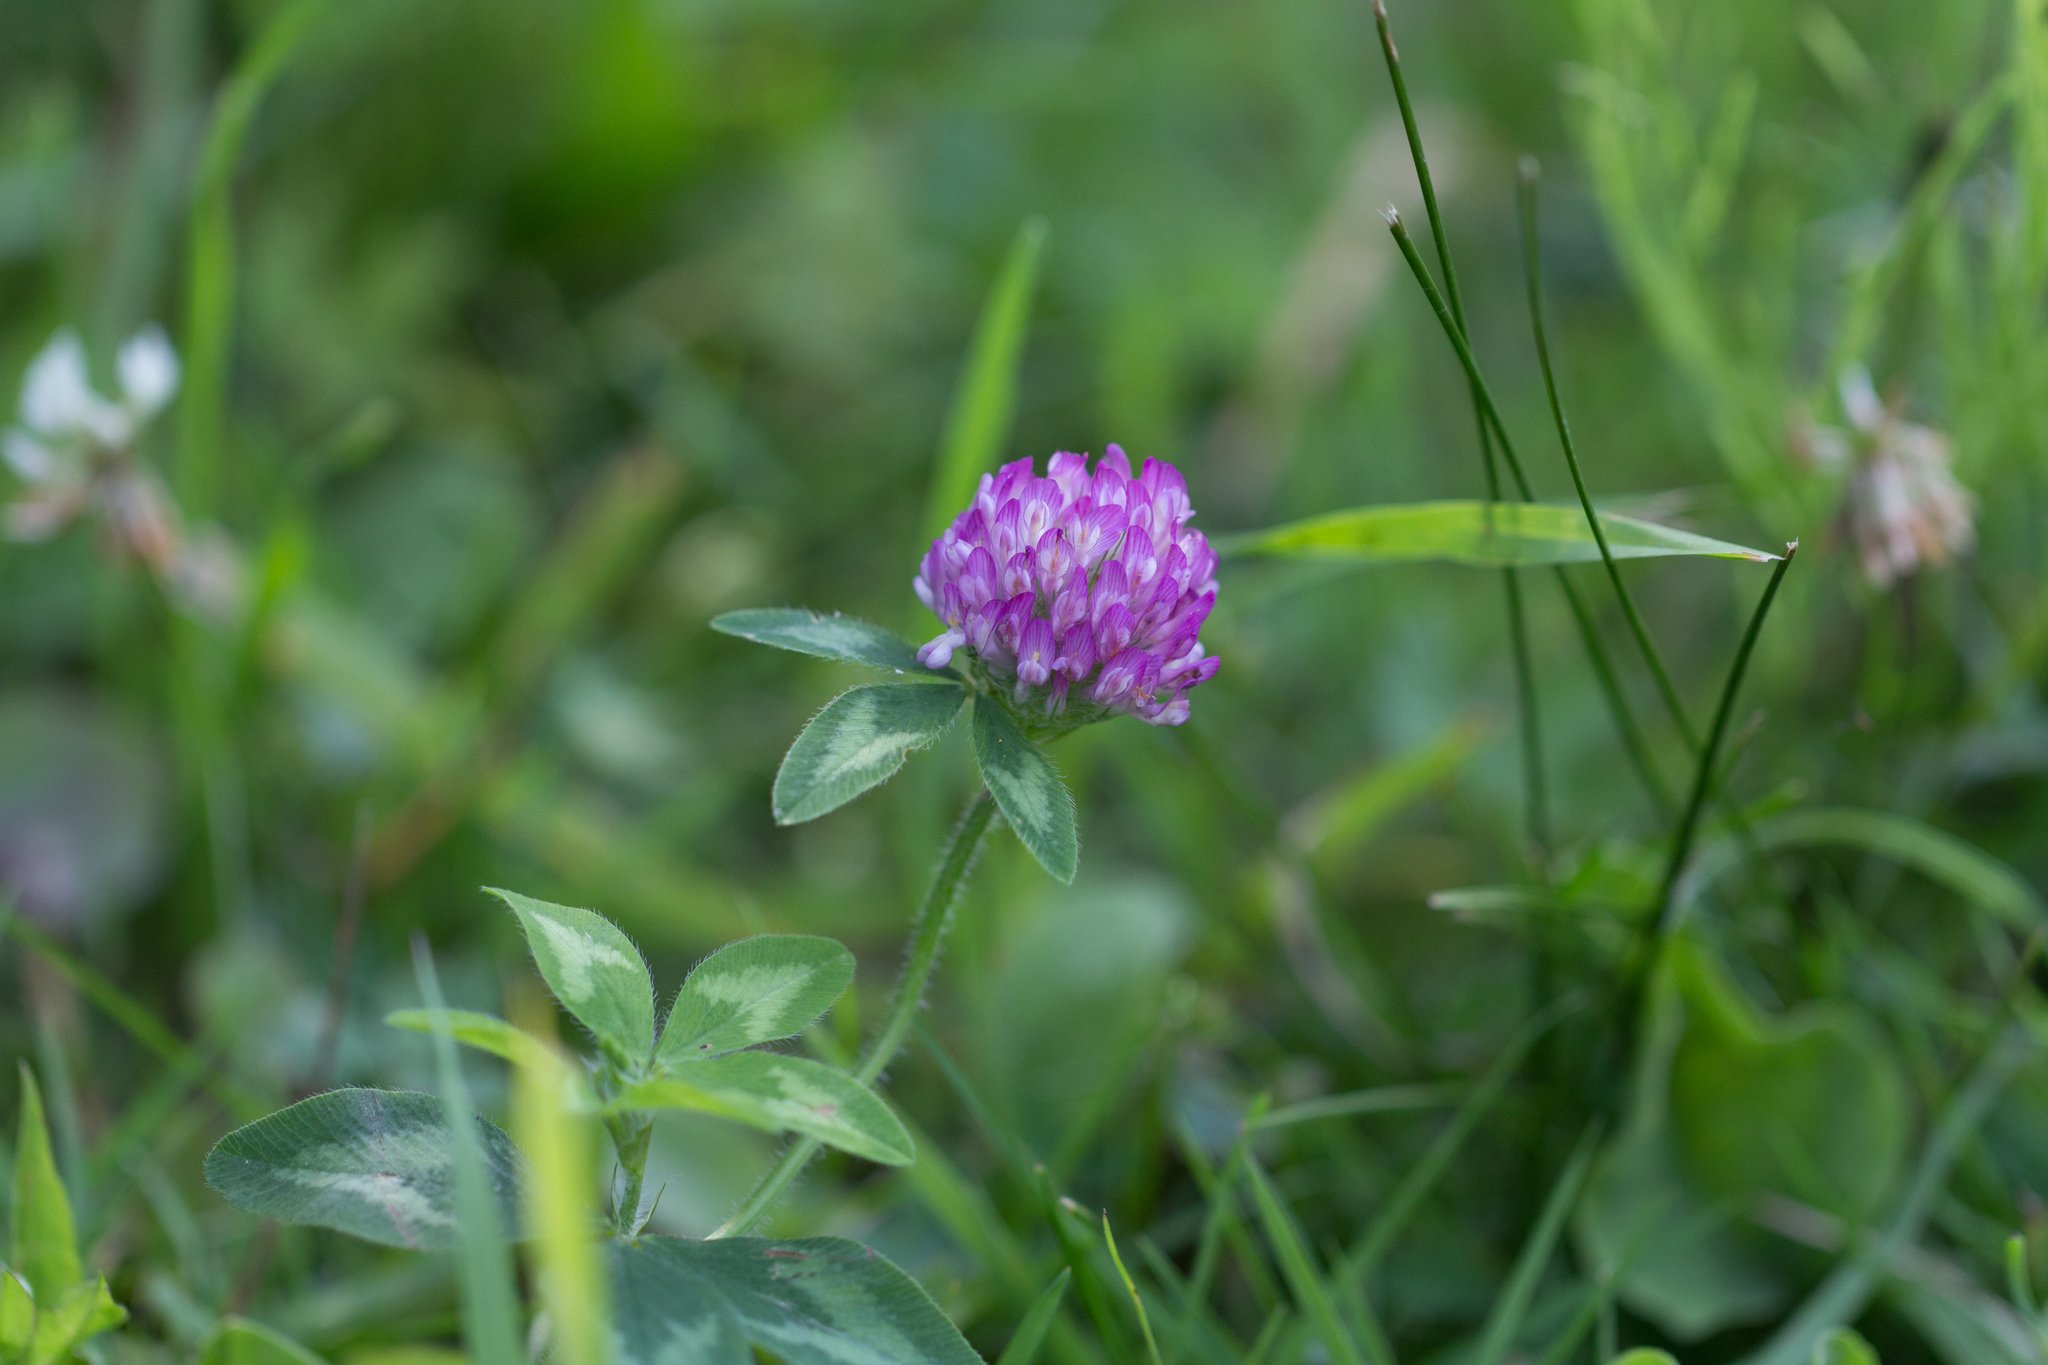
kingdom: Plantae
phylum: Tracheophyta
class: Magnoliopsida
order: Fabales
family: Fabaceae
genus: Trifolium
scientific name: Trifolium pratense
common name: Red clover
